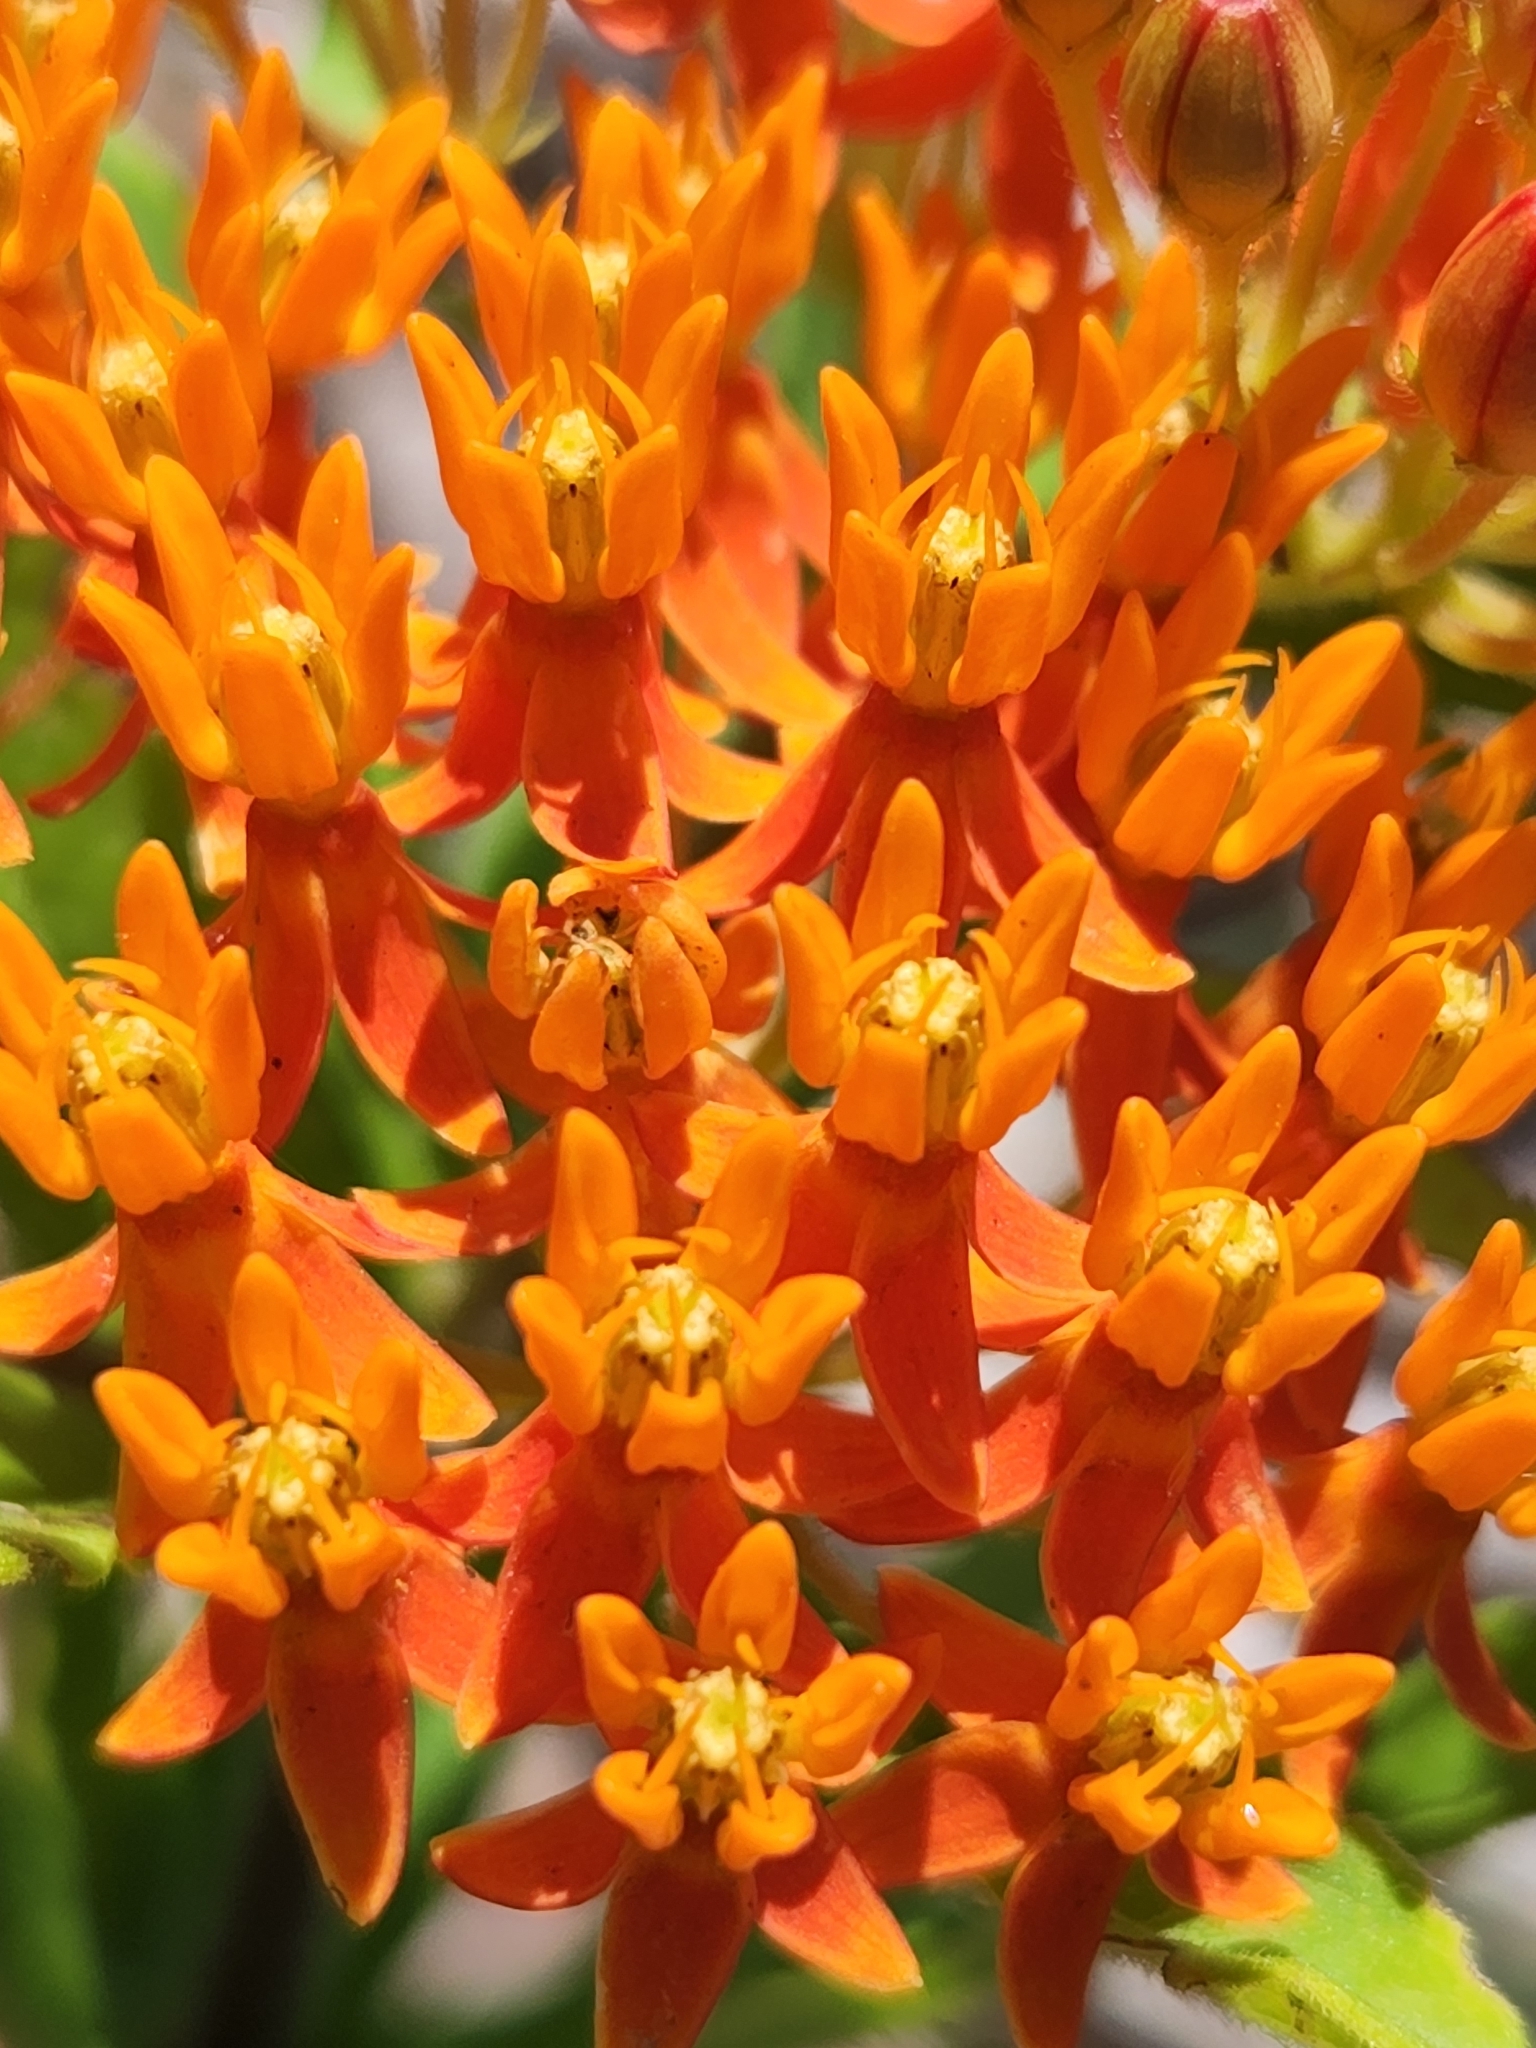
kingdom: Plantae
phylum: Tracheophyta
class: Magnoliopsida
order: Gentianales
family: Apocynaceae
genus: Asclepias
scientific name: Asclepias tuberosa
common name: Butterfly milkweed
